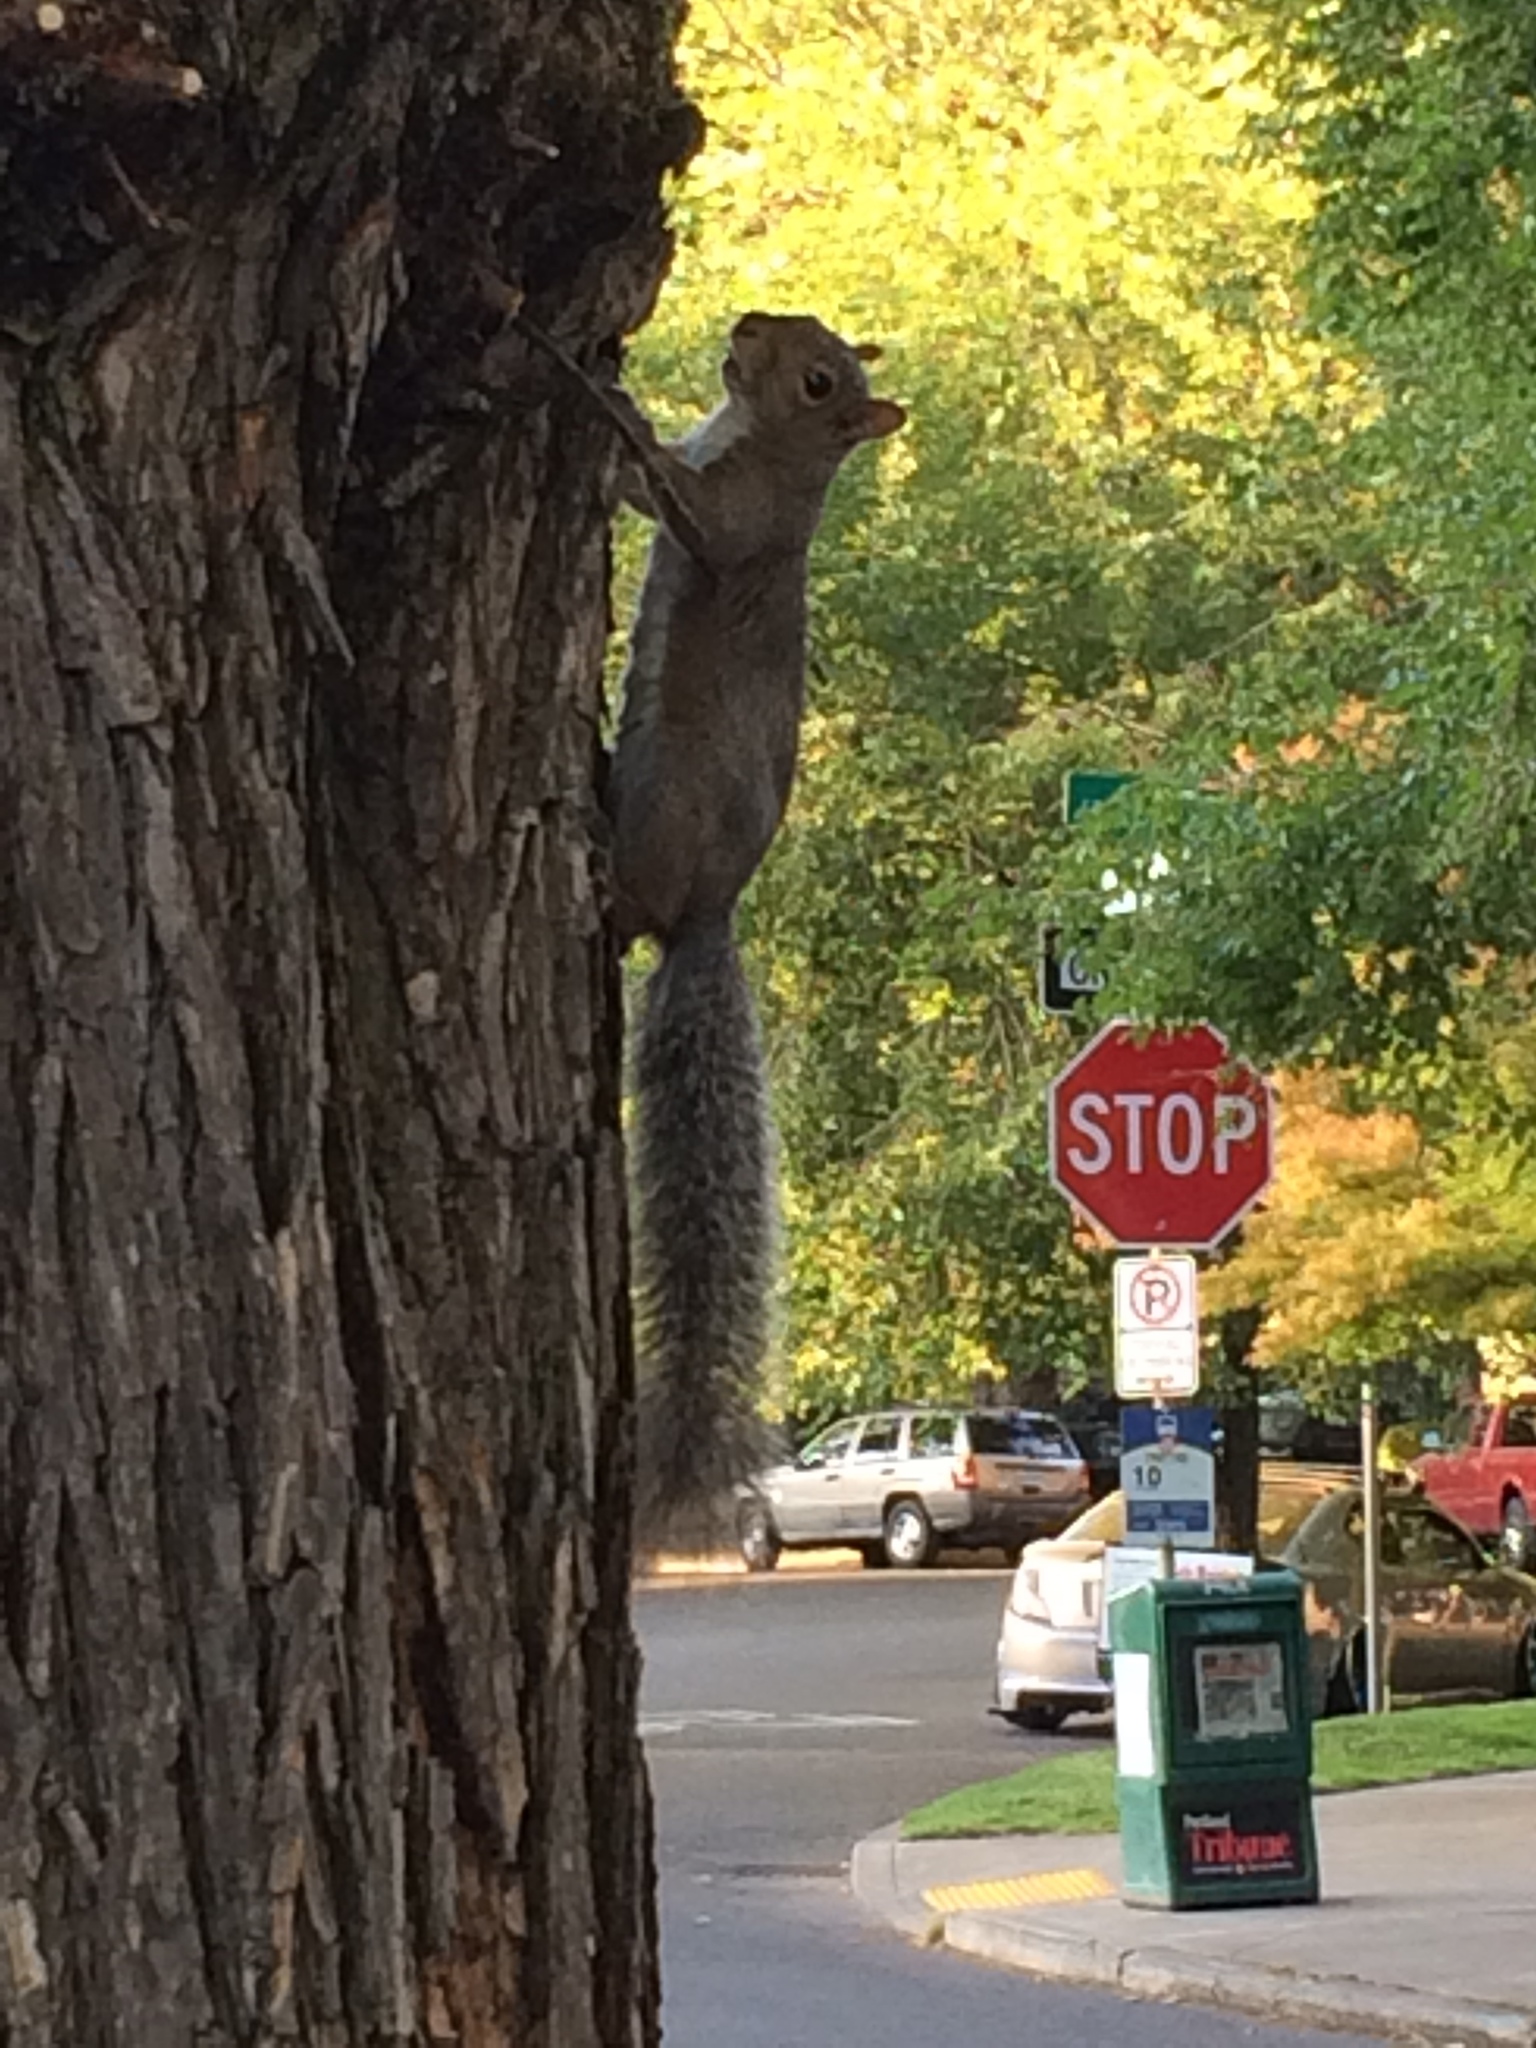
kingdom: Animalia
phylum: Chordata
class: Mammalia
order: Rodentia
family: Sciuridae
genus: Sciurus
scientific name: Sciurus carolinensis
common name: Eastern gray squirrel
